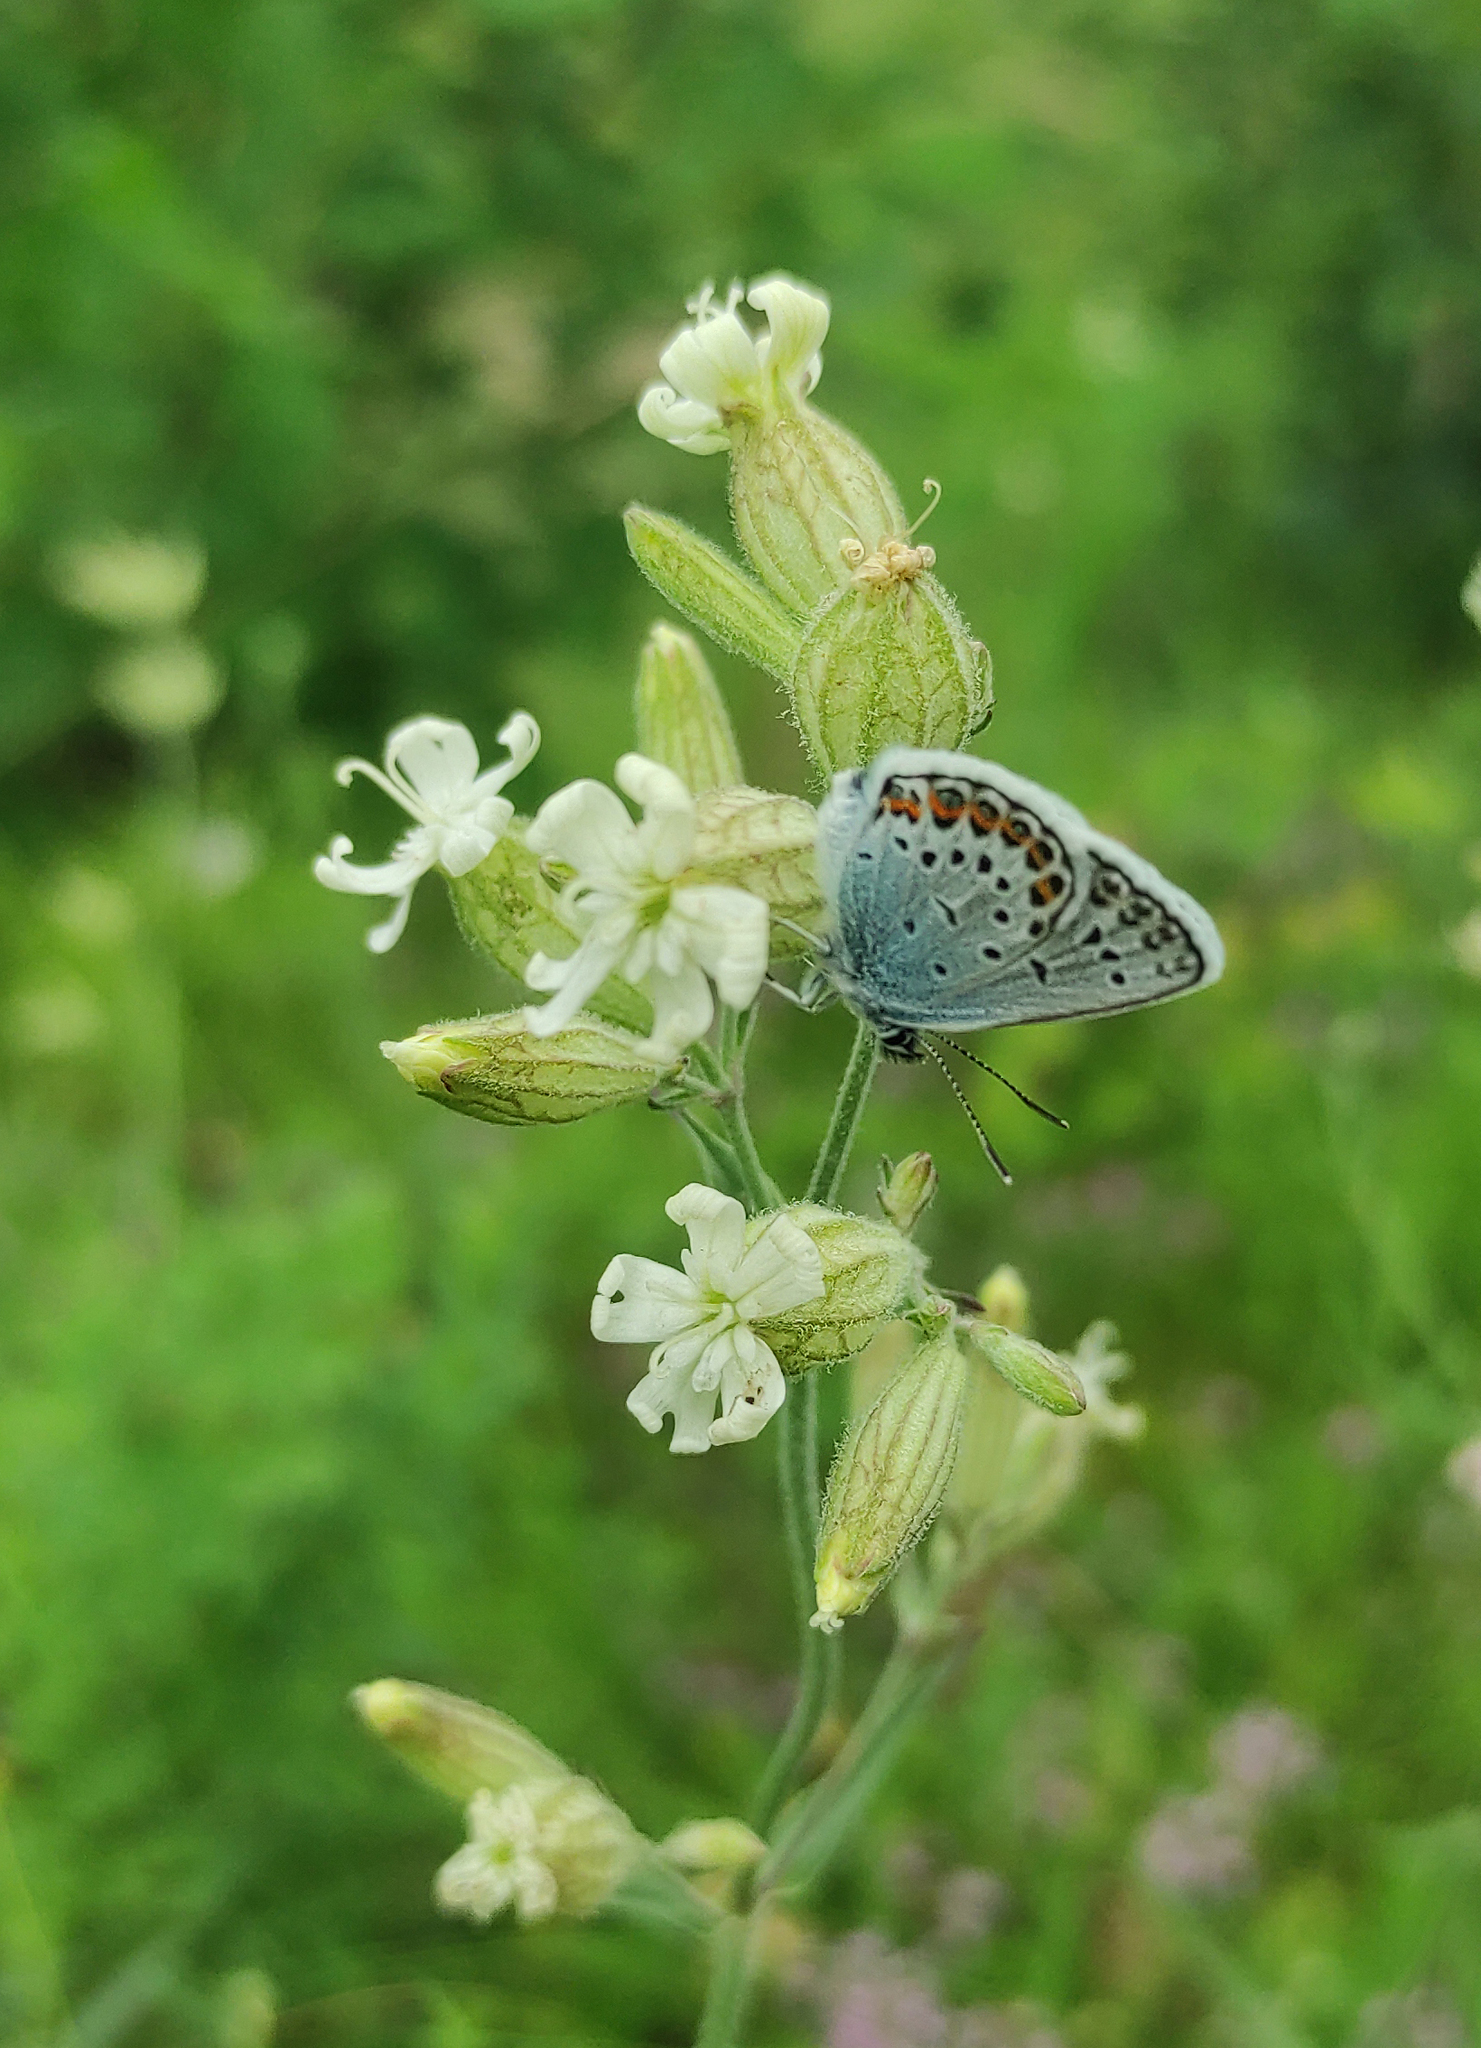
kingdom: Animalia
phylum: Arthropoda
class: Insecta
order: Lepidoptera
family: Lycaenidae
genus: Plebejus
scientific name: Plebejus argus
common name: Silver-studded blue
